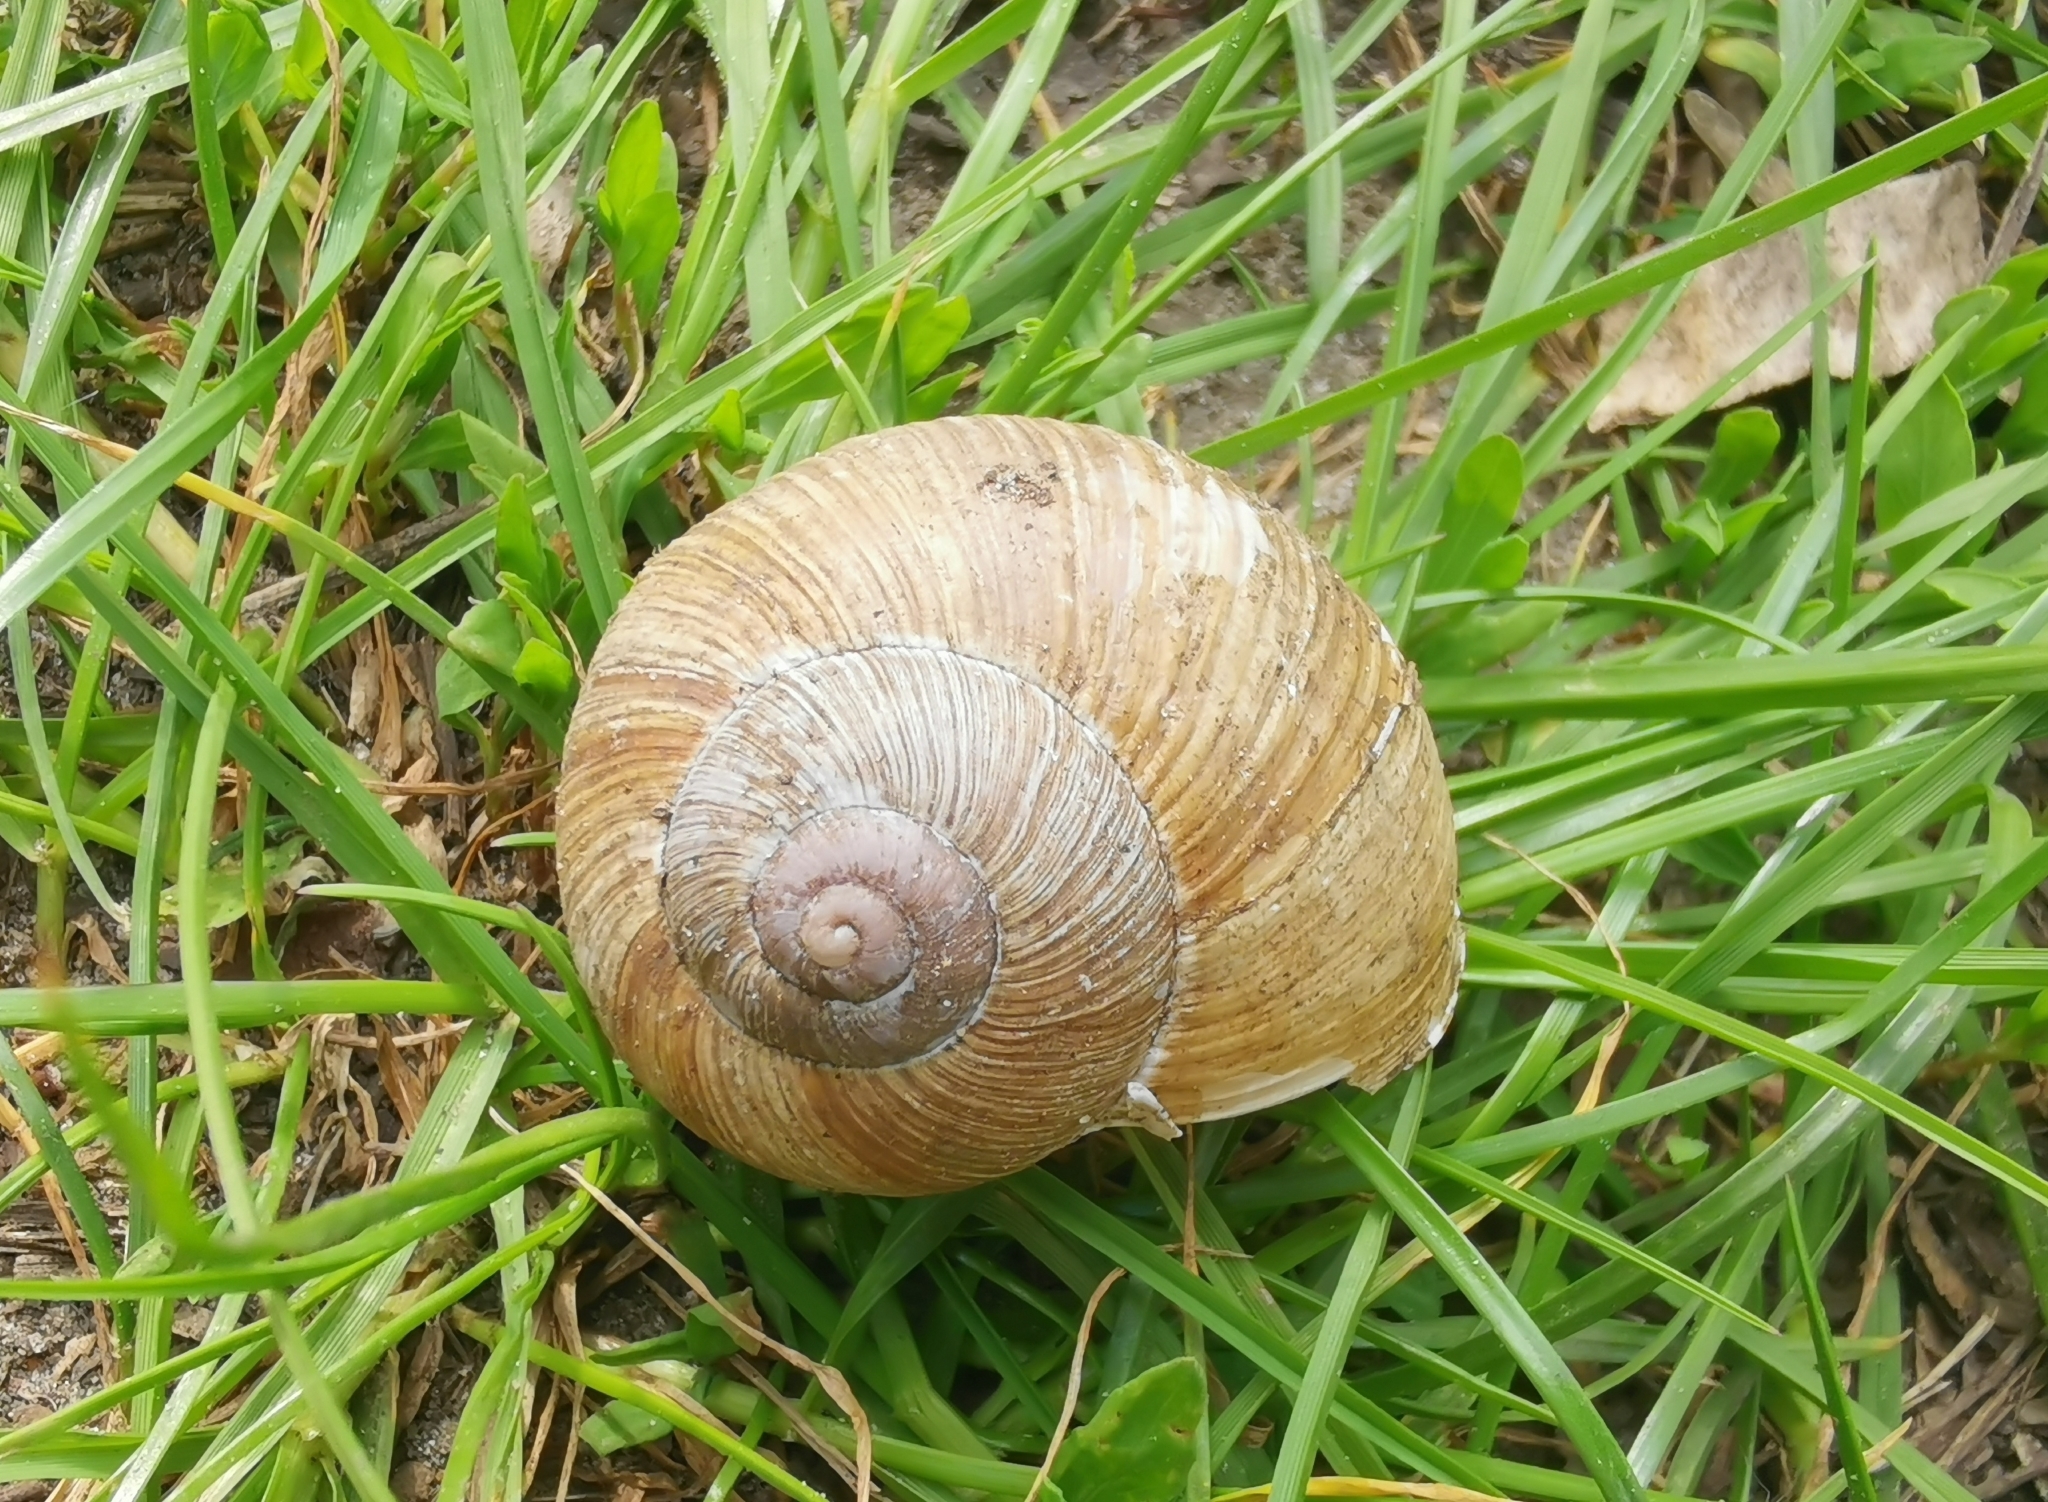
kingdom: Animalia
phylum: Mollusca
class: Gastropoda
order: Stylommatophora
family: Helicidae
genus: Helix
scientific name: Helix pomatia
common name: Roman snail
